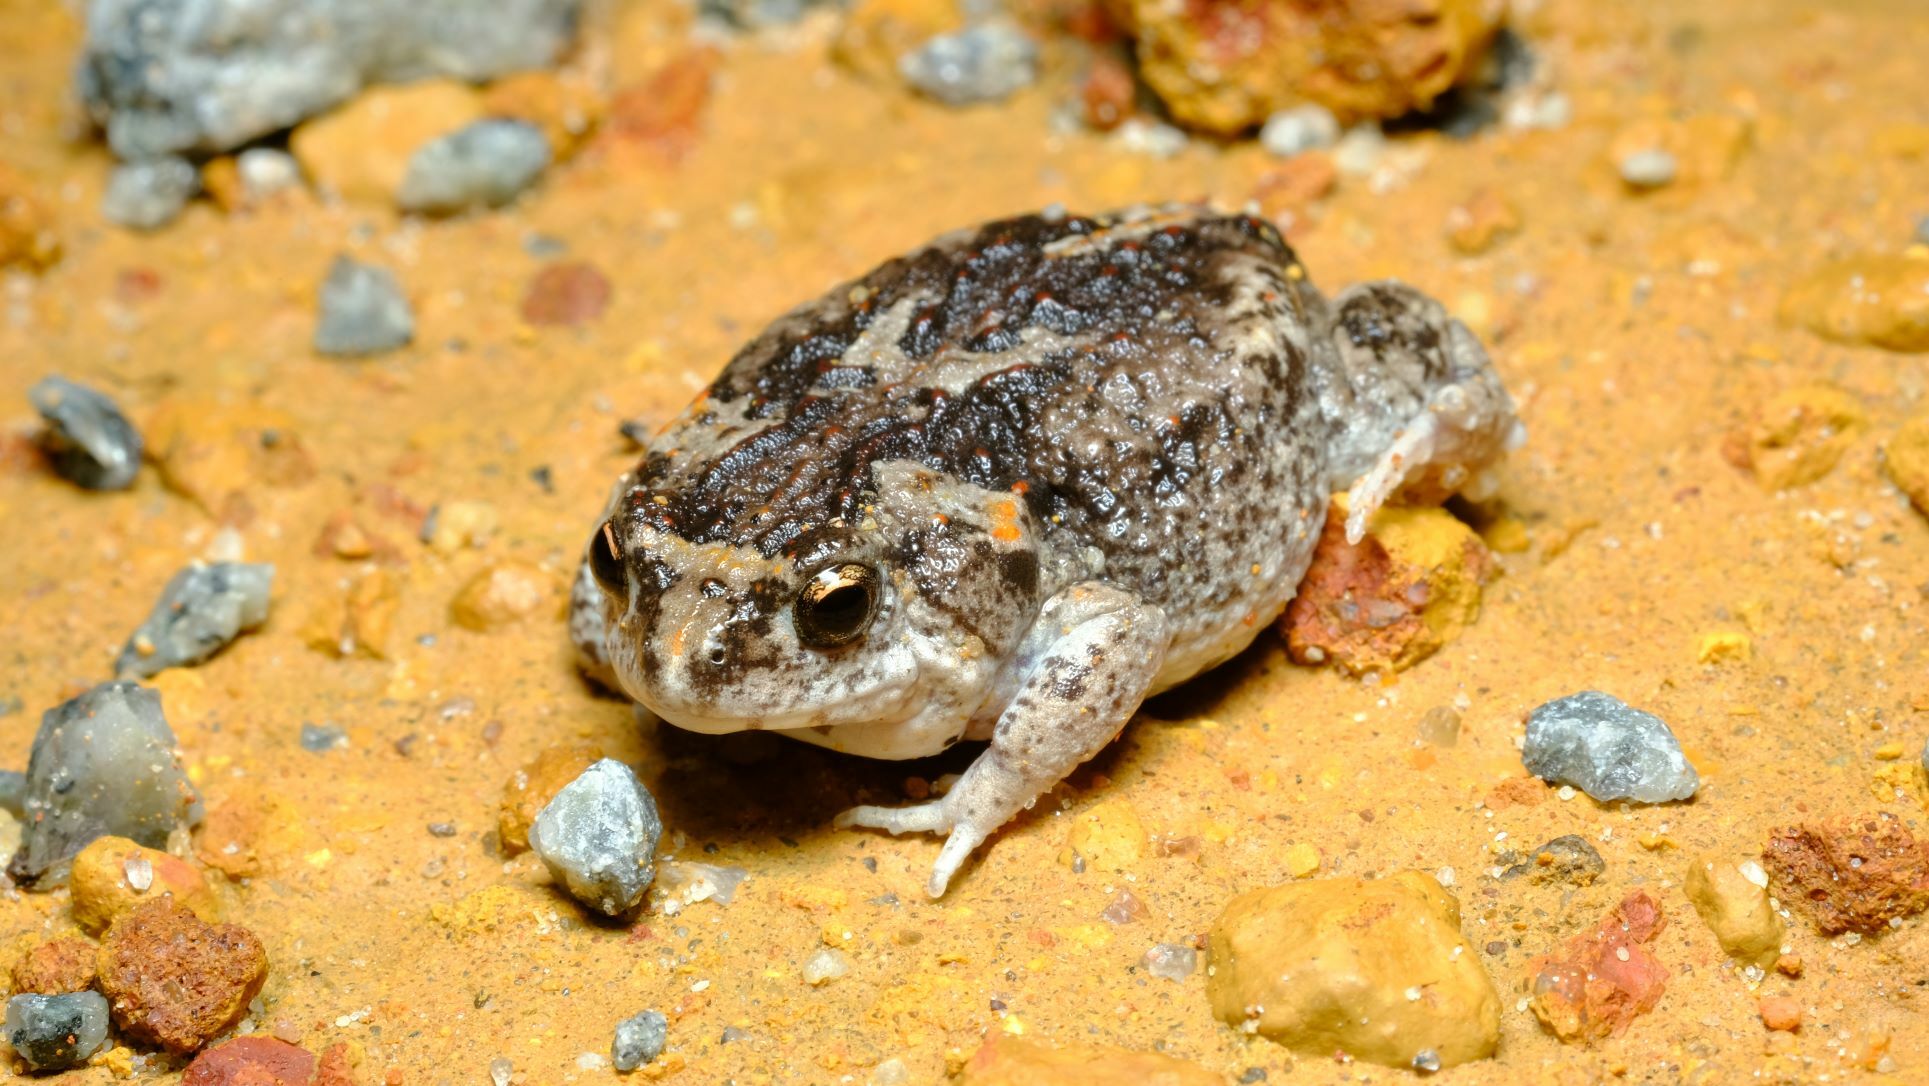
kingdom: Animalia
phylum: Chordata
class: Amphibia
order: Anura
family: Myobatrachidae
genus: Pseudophryne
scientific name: Pseudophryne guentheri
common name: Günther’s toadlet
